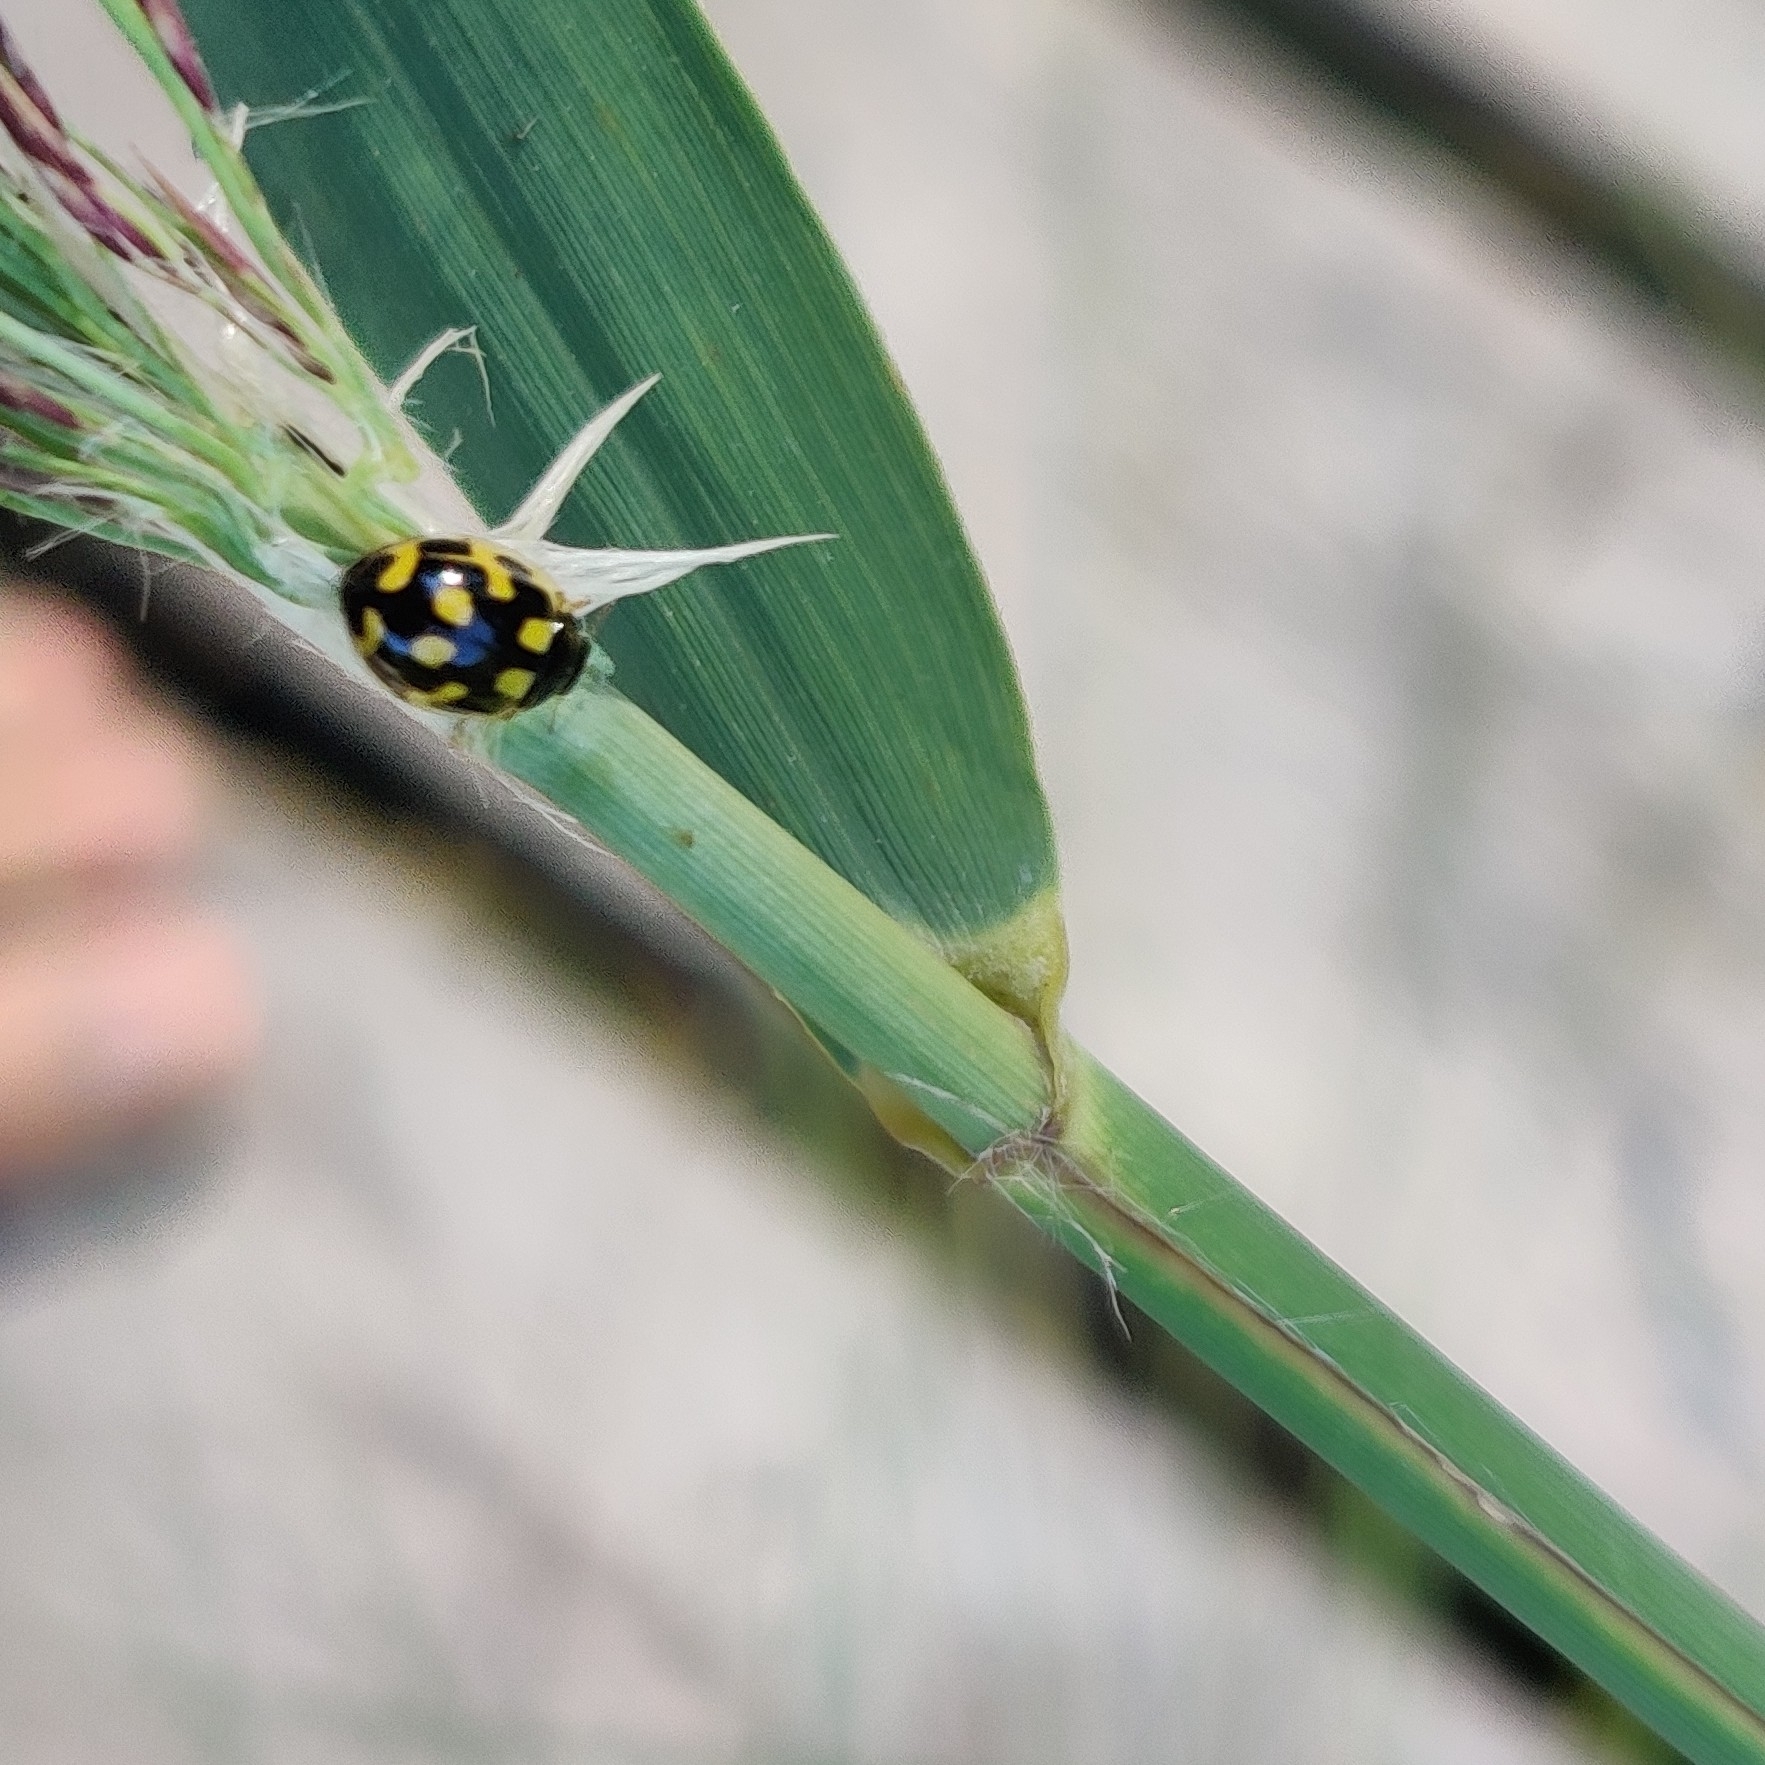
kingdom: Animalia
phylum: Arthropoda
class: Insecta
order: Coleoptera
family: Coccinellidae
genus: Propylaea
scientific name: Propylaea quatuordecimpunctata
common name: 14-spotted ladybird beetle
